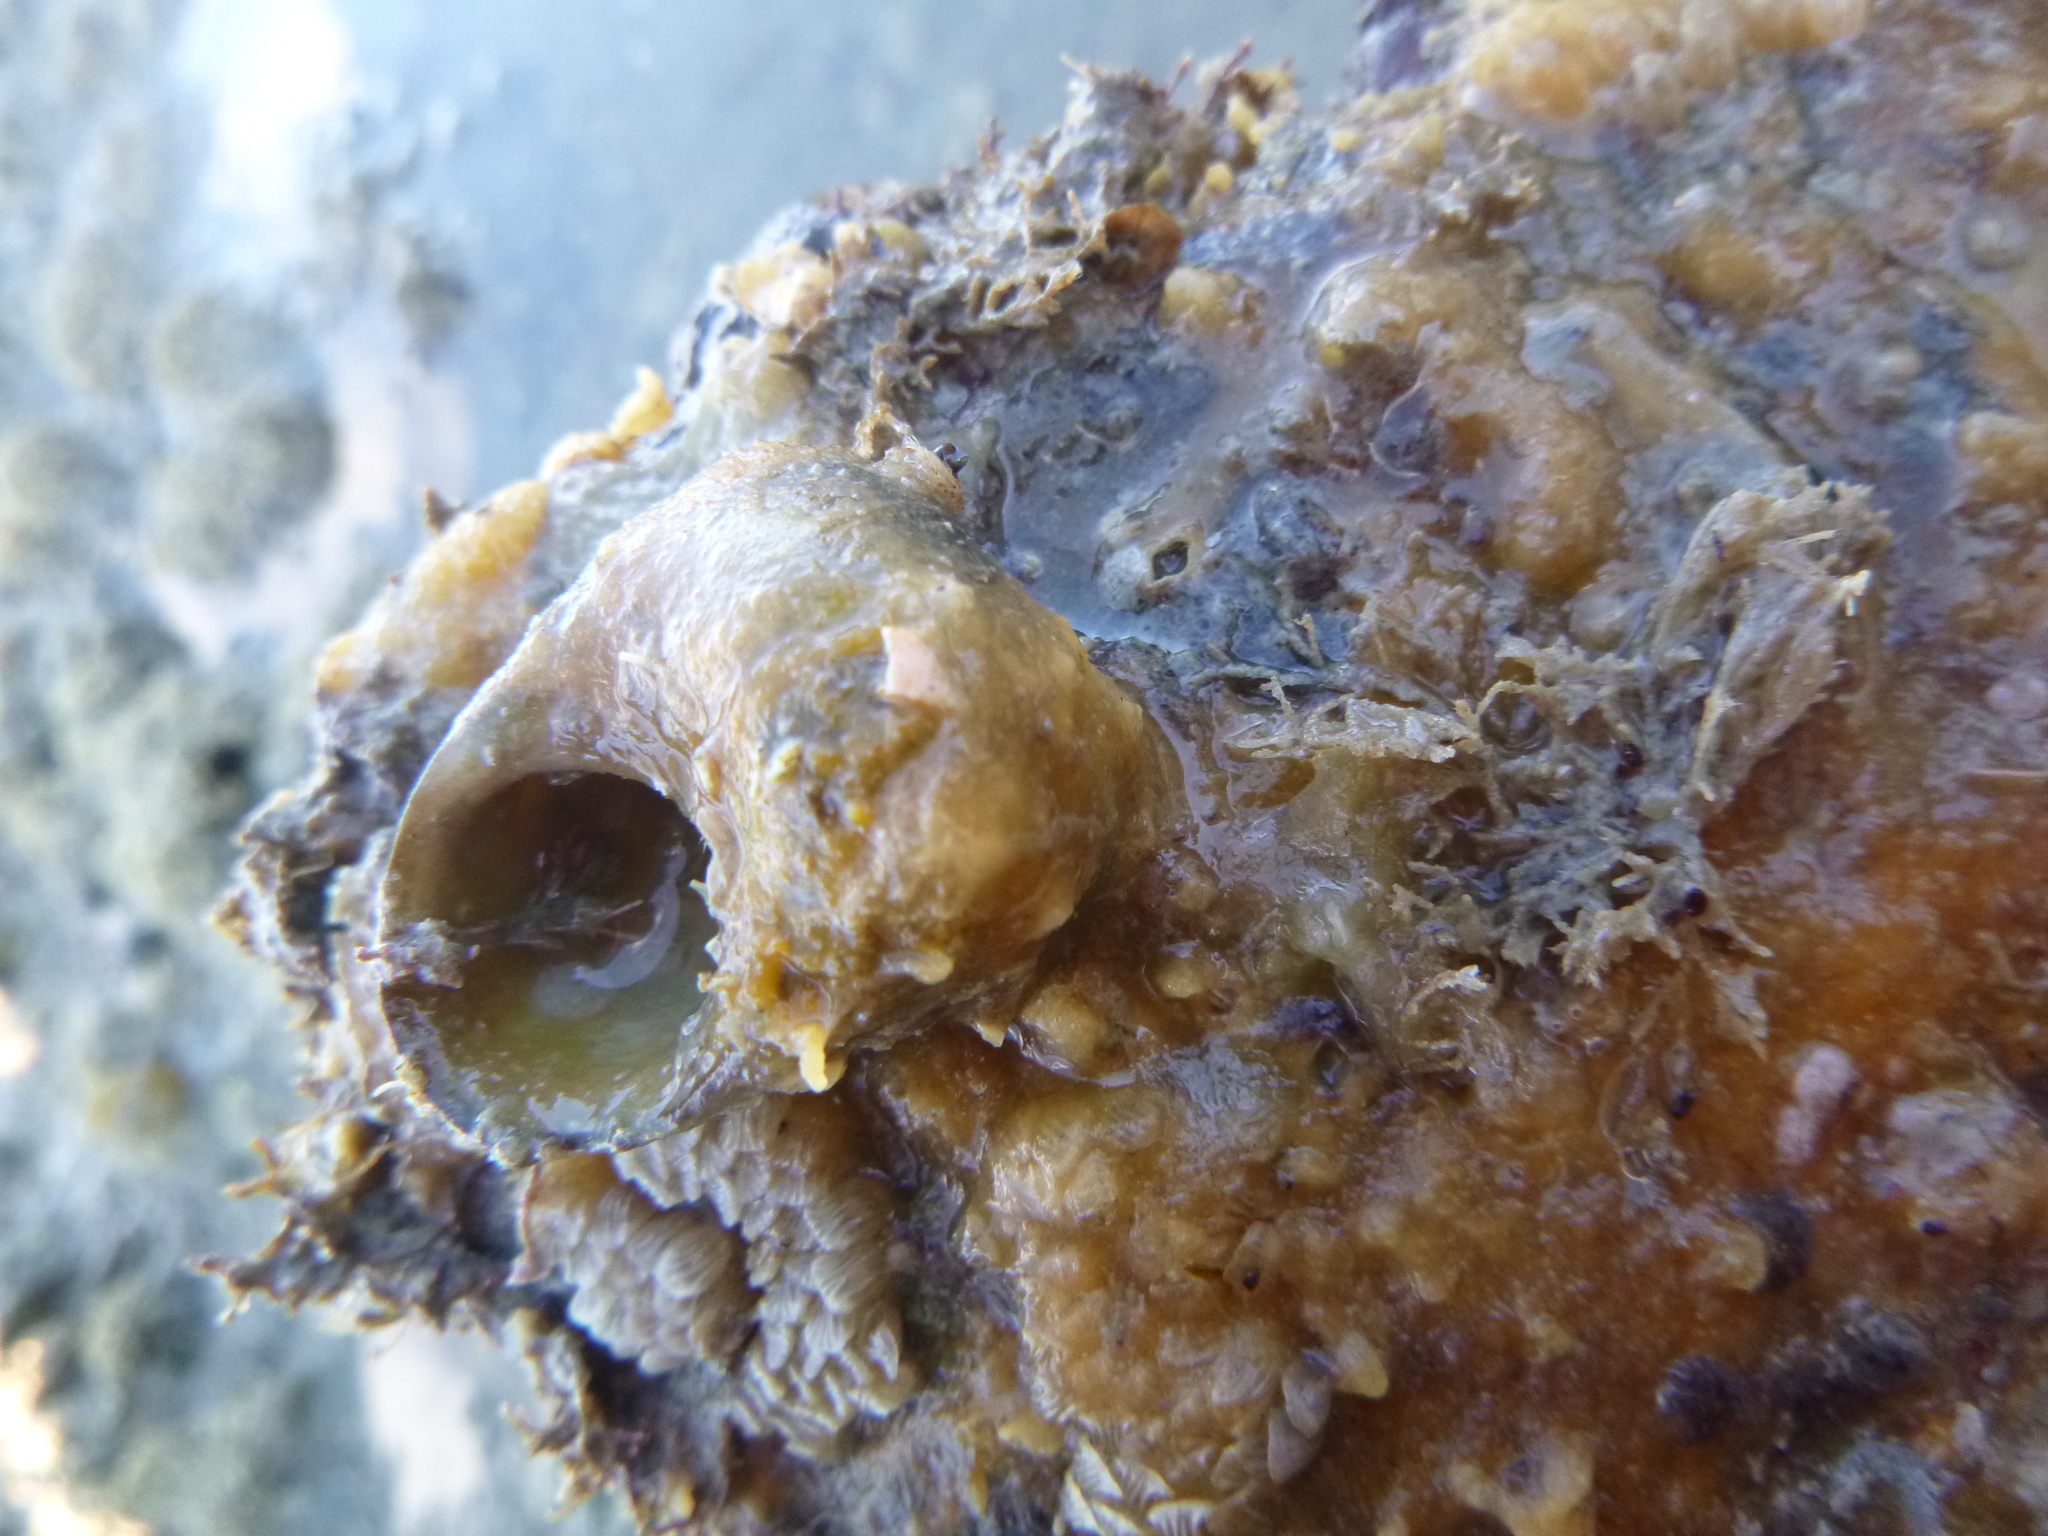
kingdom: Animalia
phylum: Mollusca
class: Gastropoda
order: Trochida
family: Turbinidae
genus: Lunella
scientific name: Lunella smaragda
